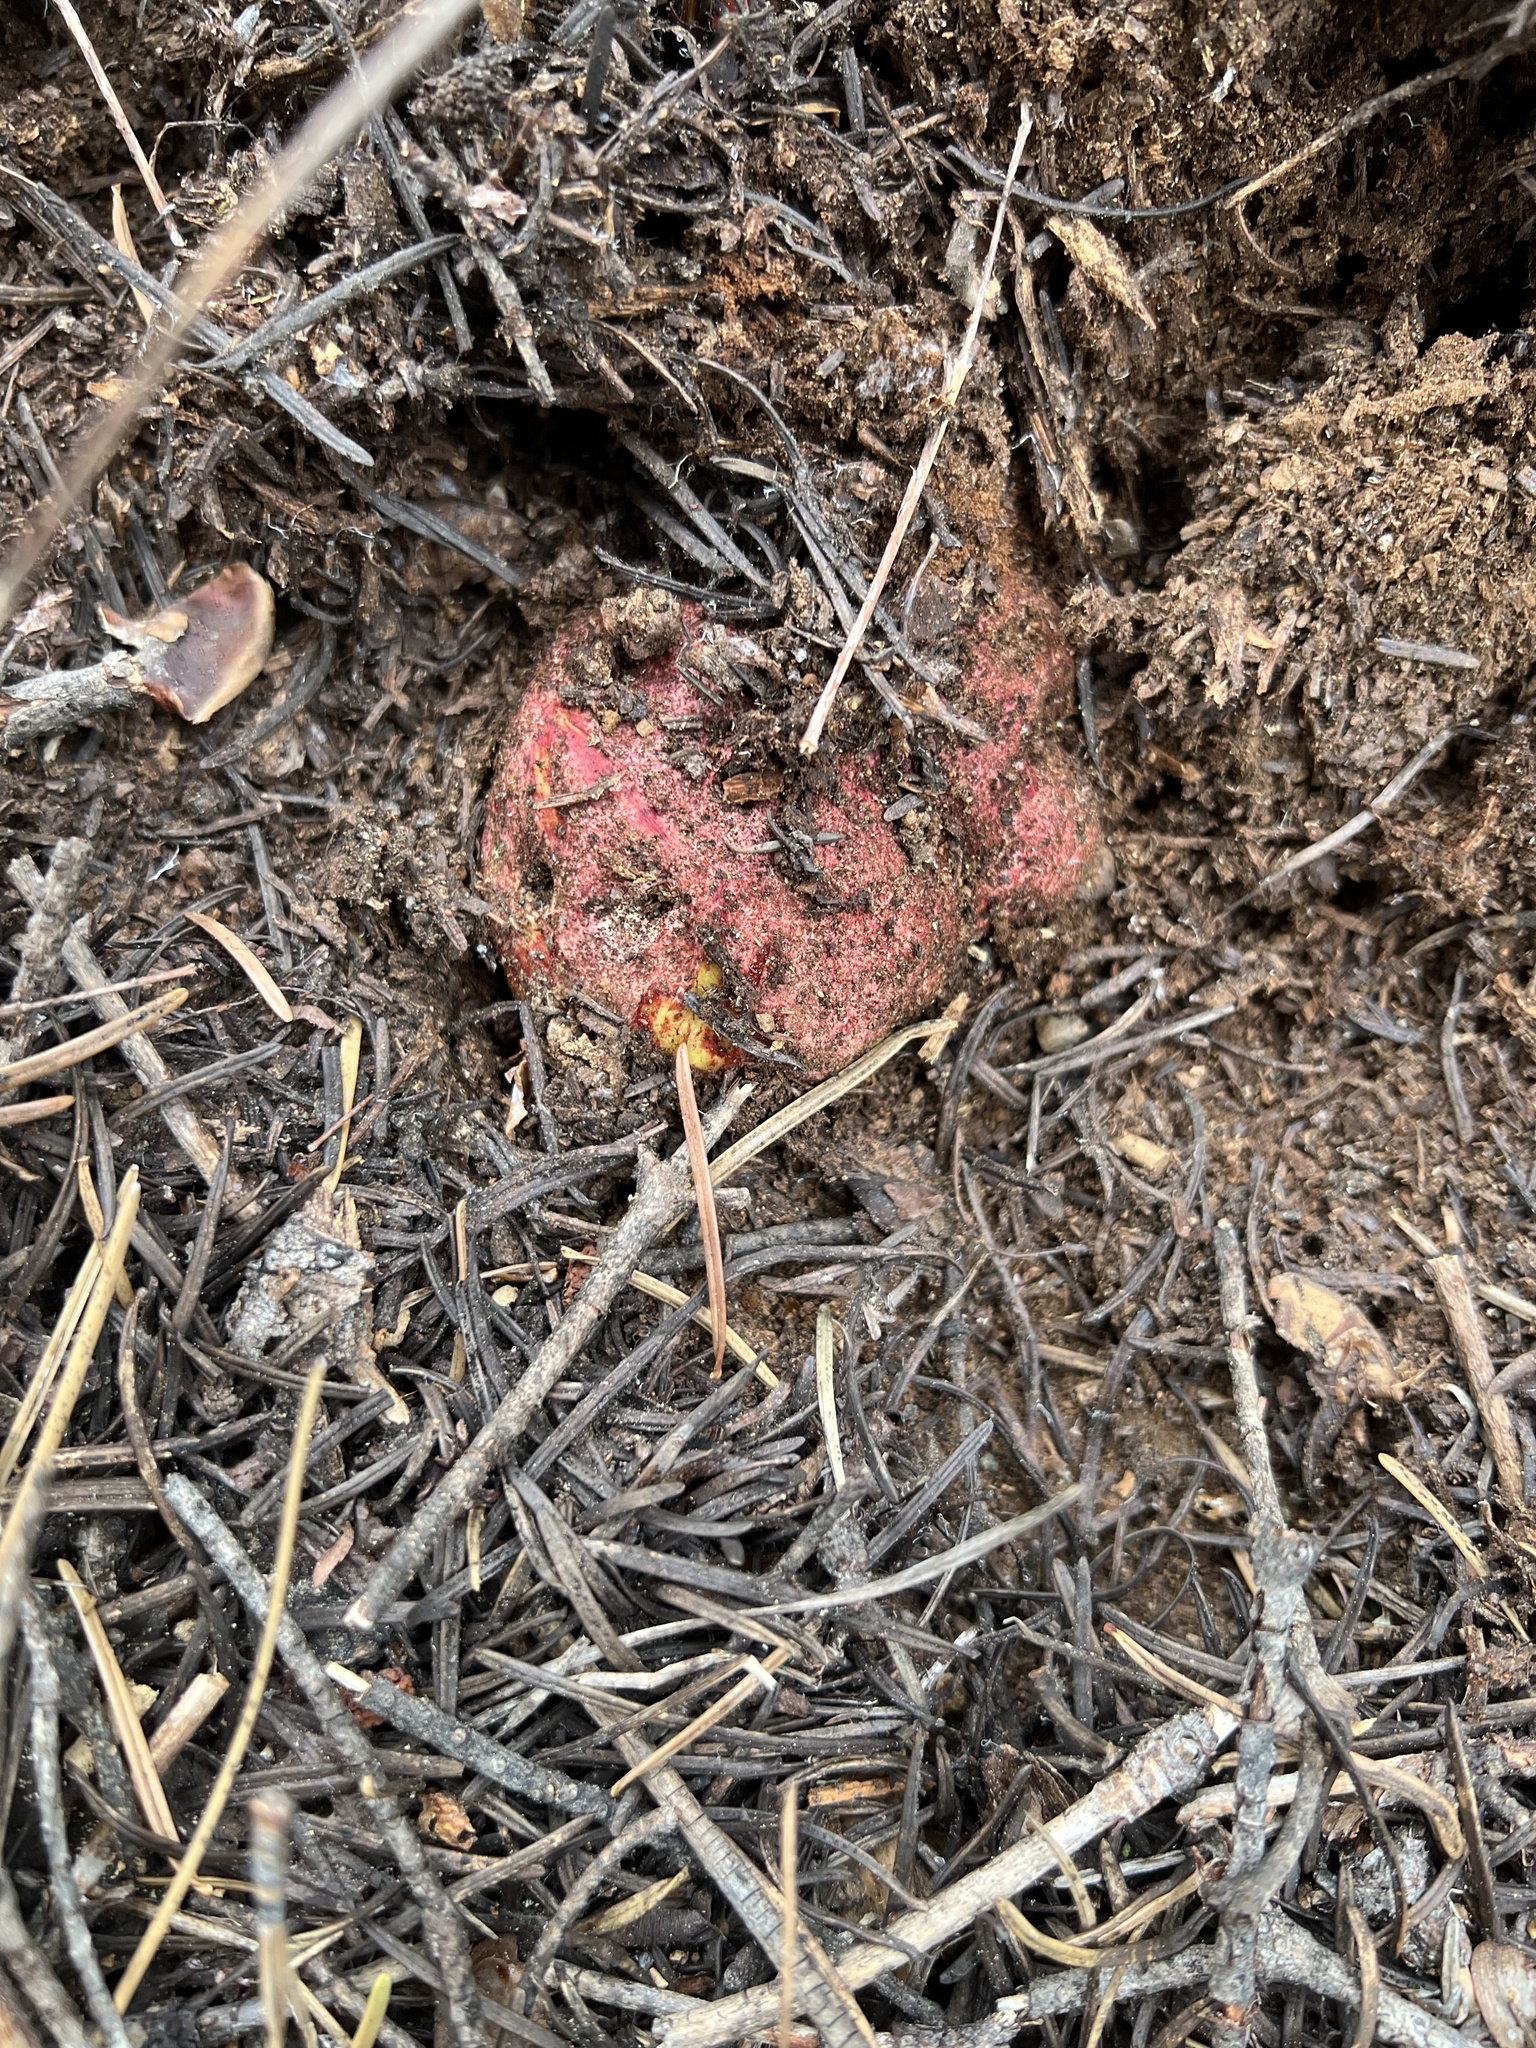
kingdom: Fungi
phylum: Basidiomycota
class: Agaricomycetes
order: Boletales
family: Boletaceae
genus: Butyriboletus
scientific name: Butyriboletus primiregius
